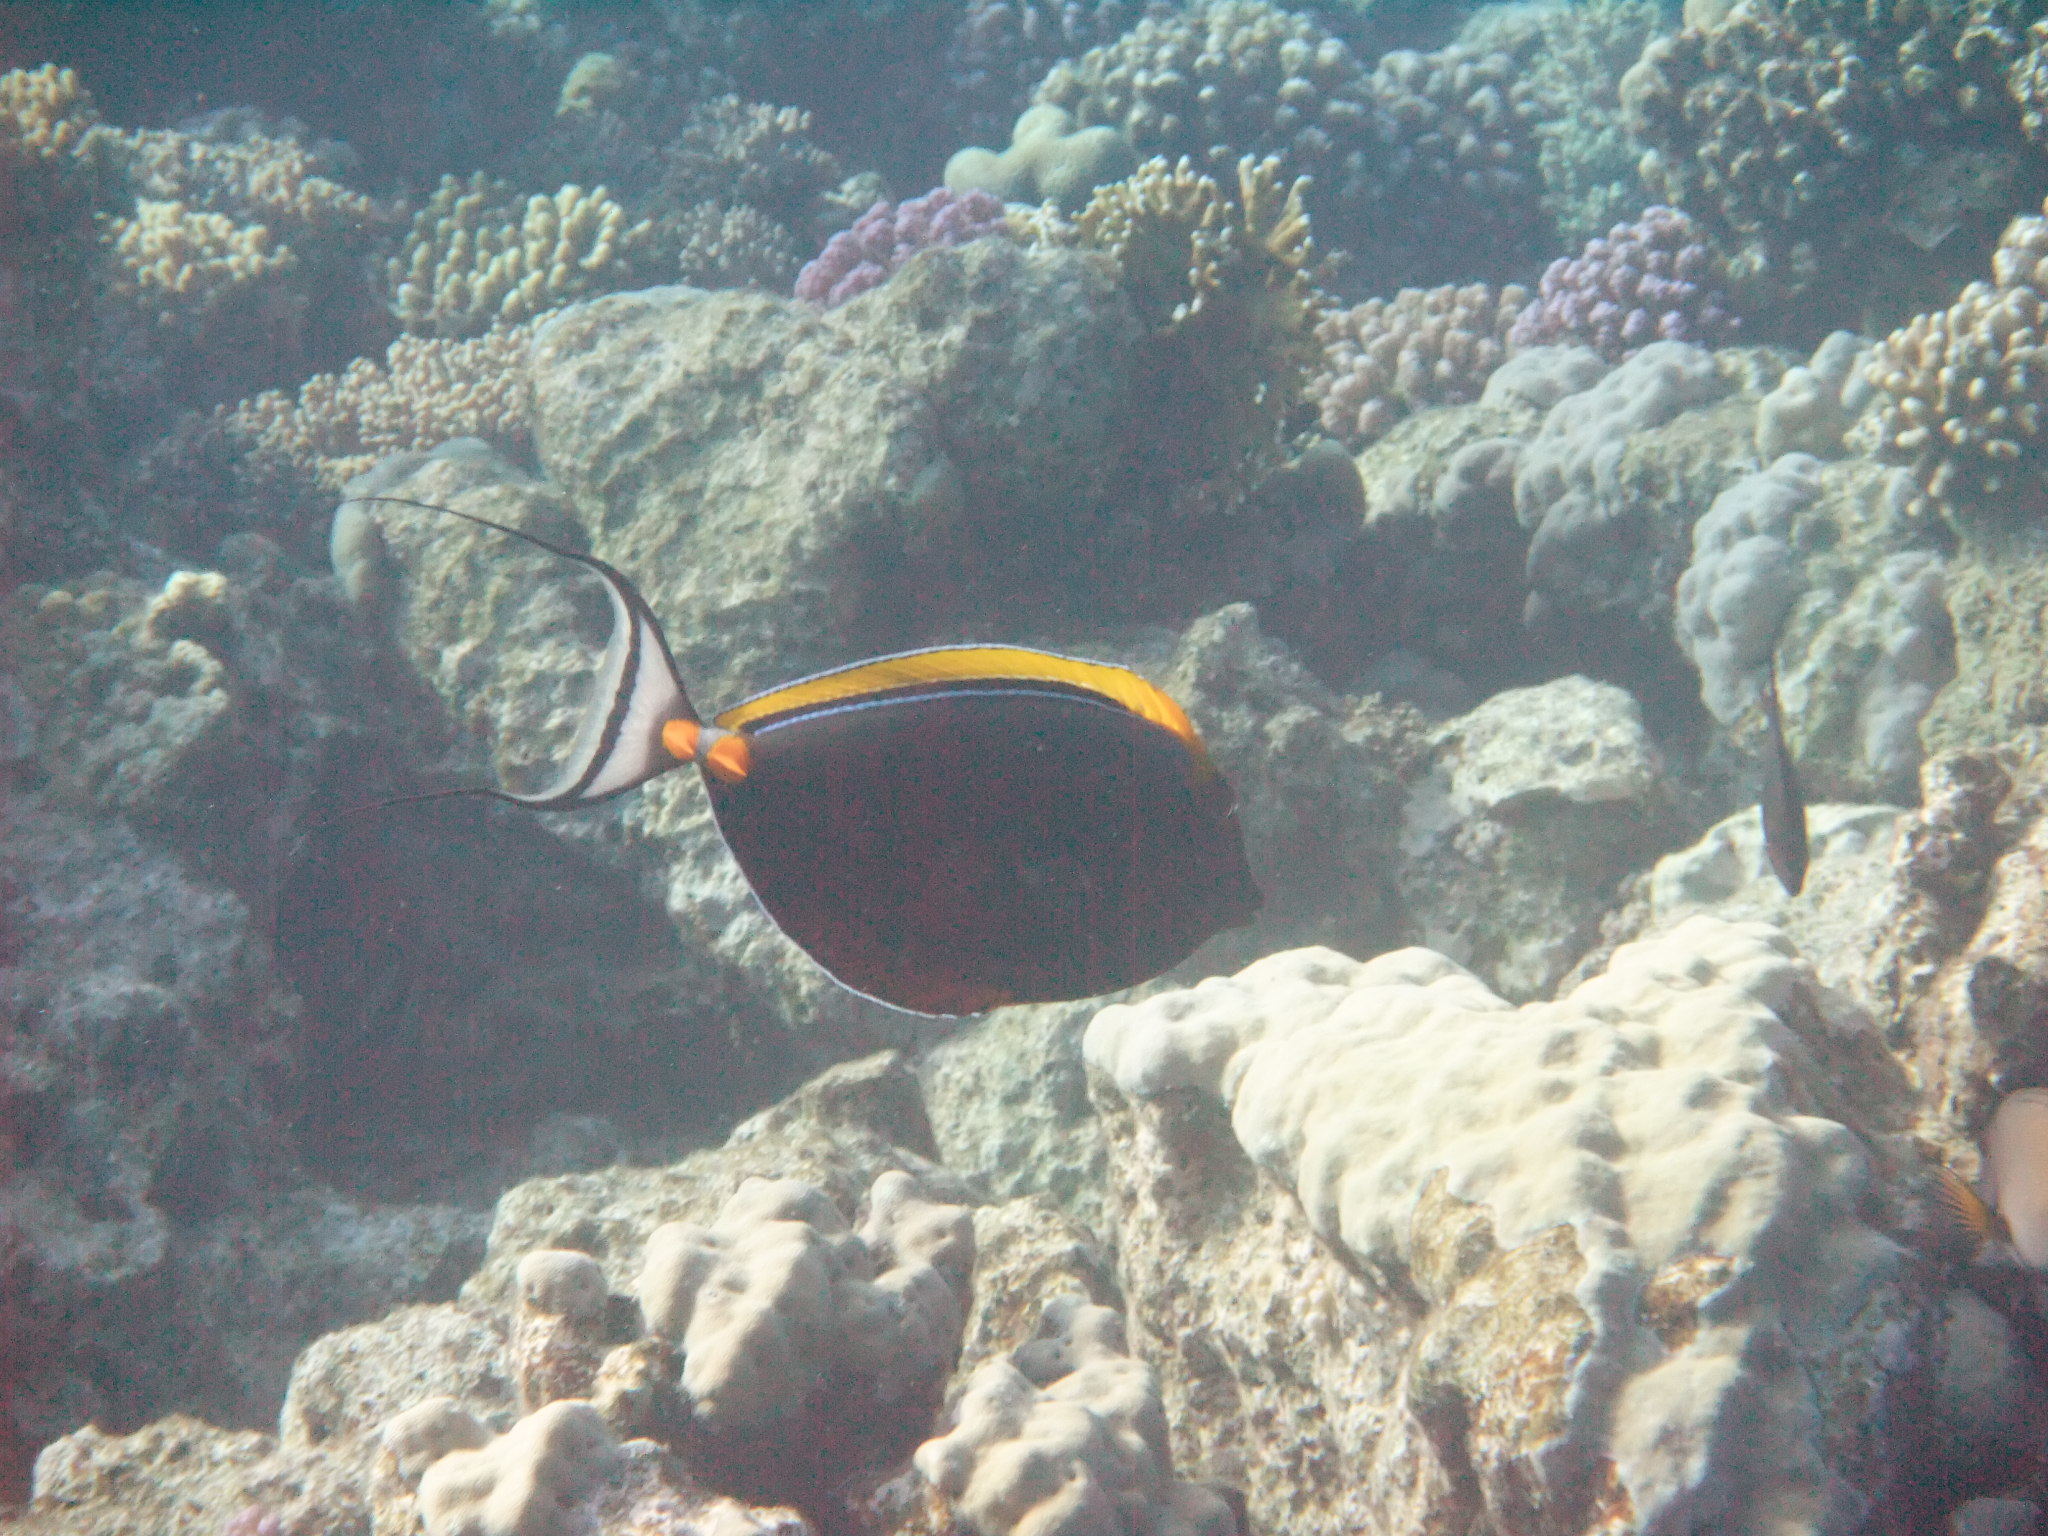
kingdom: Animalia
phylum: Chordata
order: Perciformes
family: Acanthuridae
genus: Naso
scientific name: Naso elegans
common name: Orangespine unicornfish
